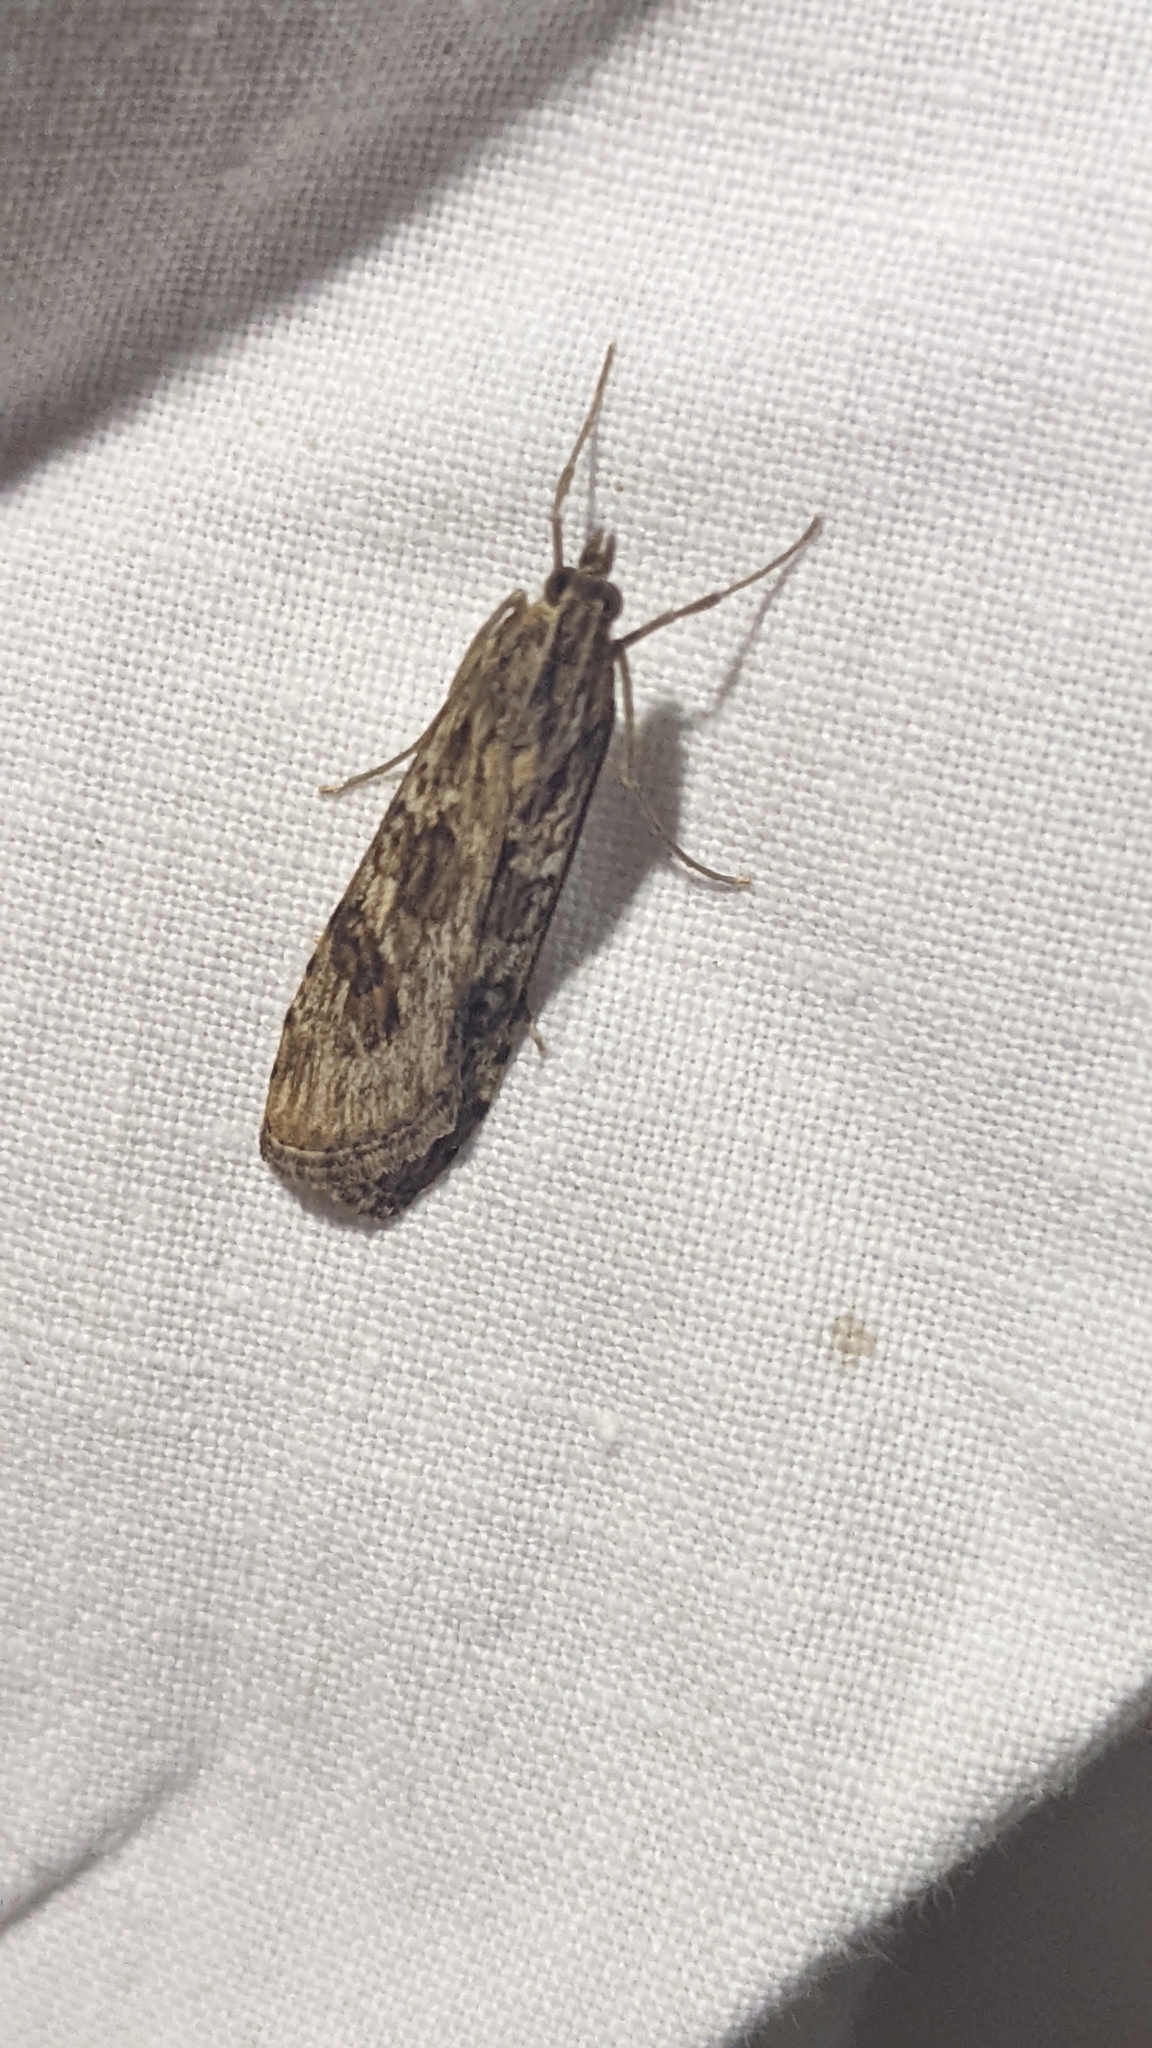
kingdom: Animalia
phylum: Arthropoda
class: Insecta
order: Lepidoptera
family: Crambidae
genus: Nomophila
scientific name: Nomophila noctuella
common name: Rush veneer
